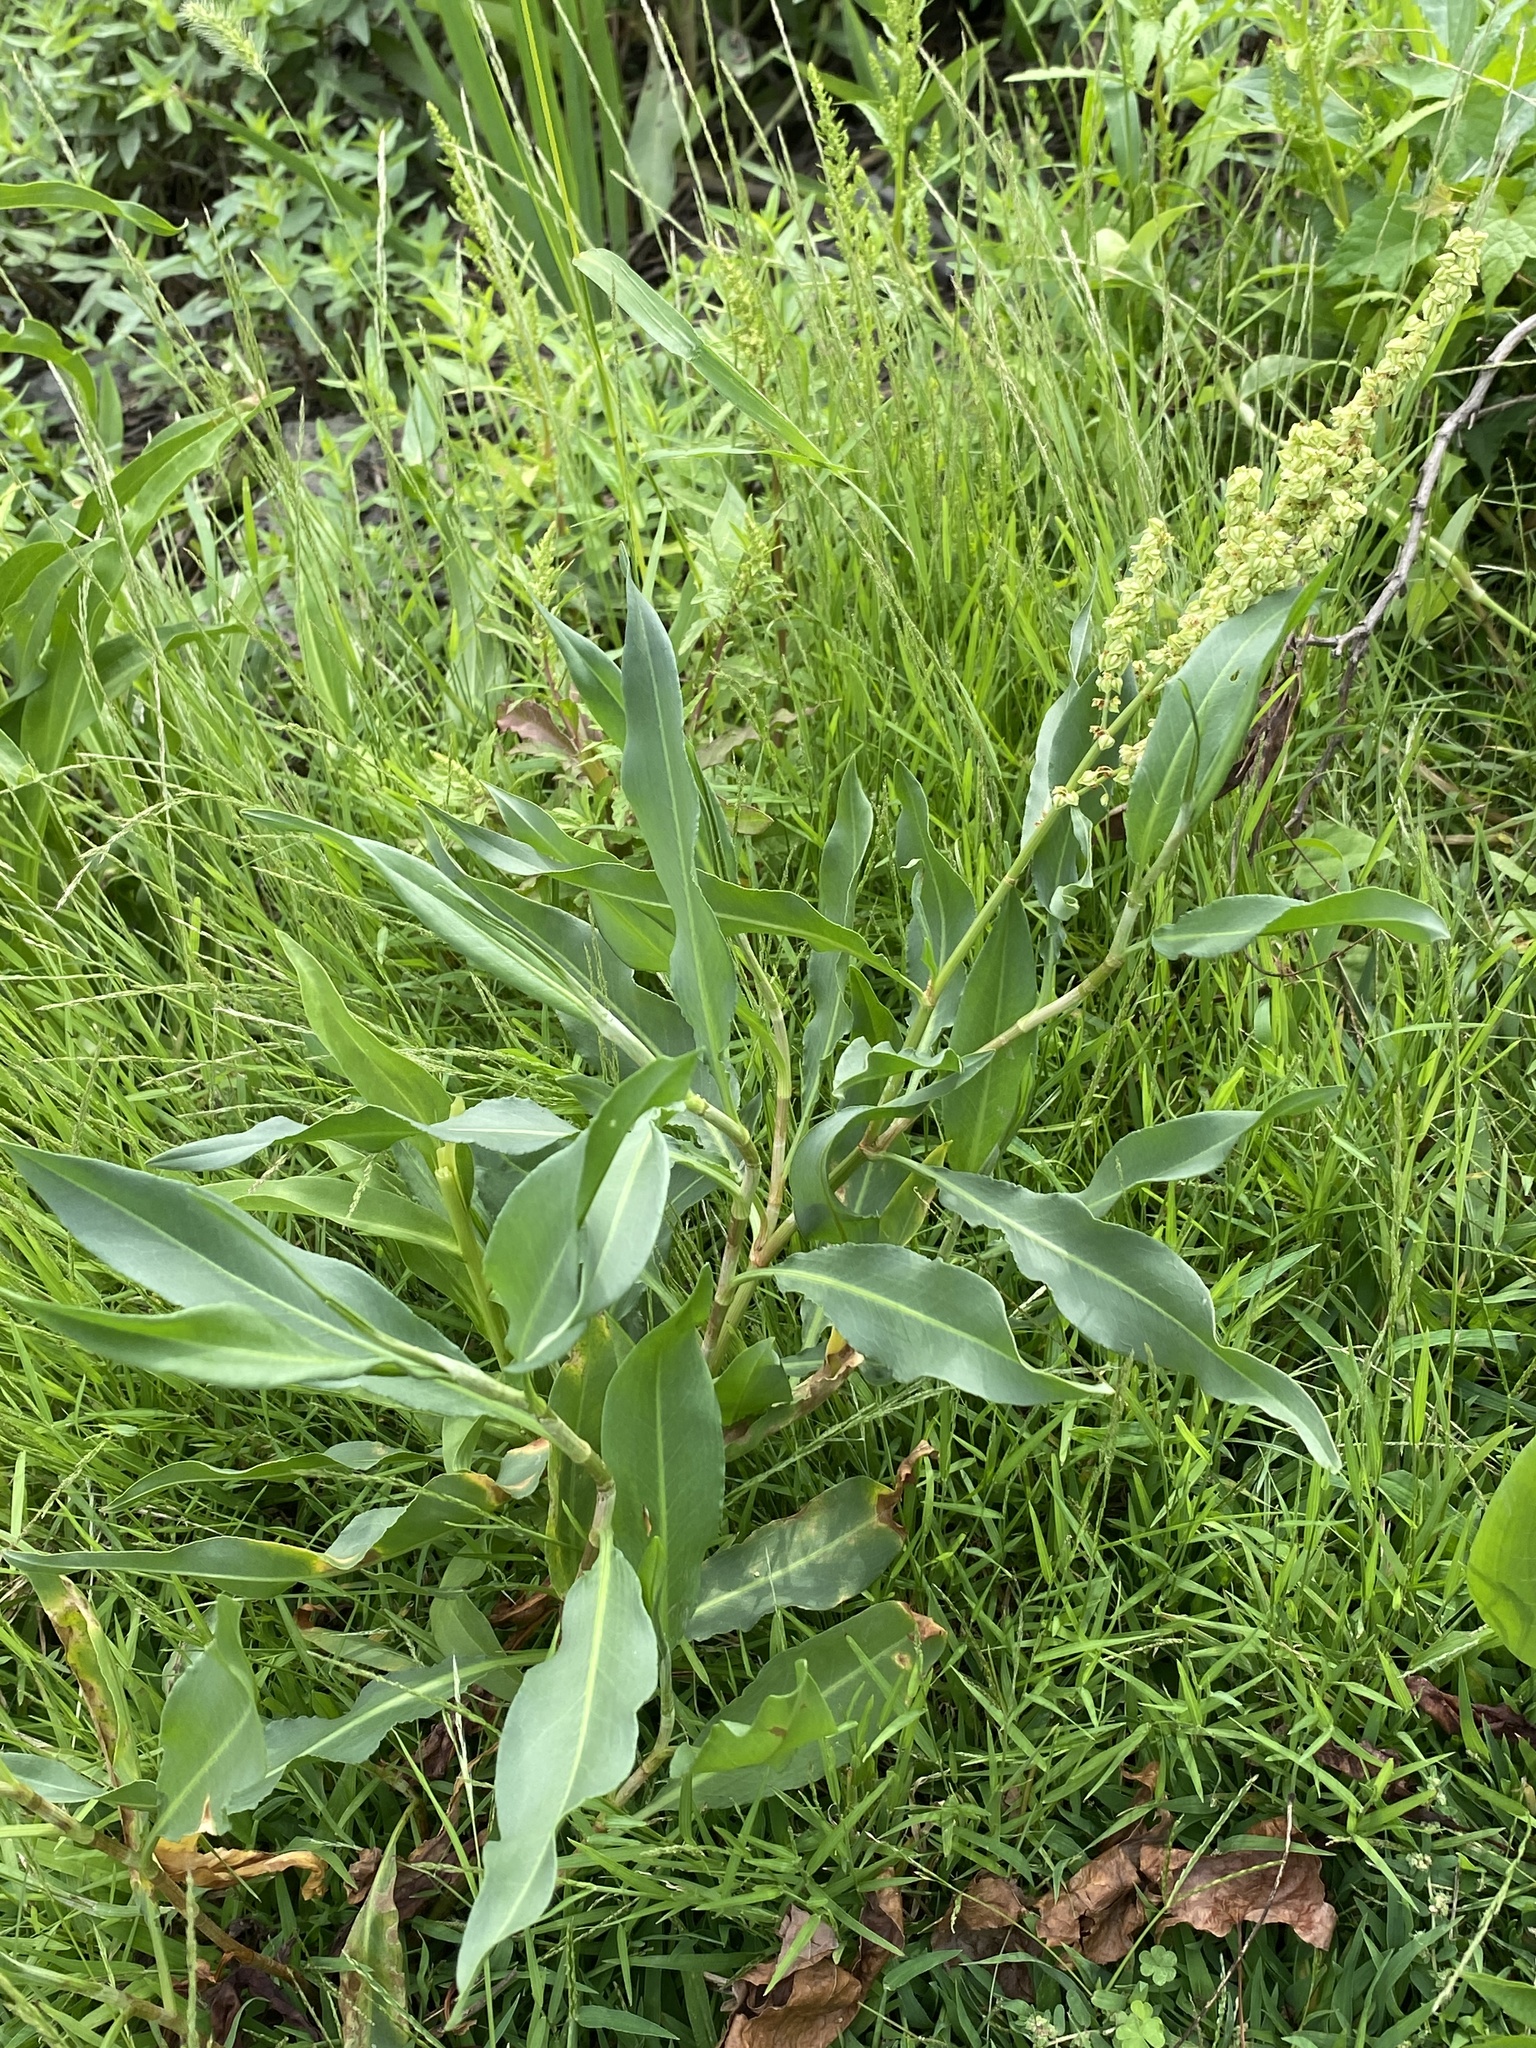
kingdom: Plantae
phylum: Tracheophyta
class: Magnoliopsida
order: Caryophyllales
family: Polygonaceae
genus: Rumex
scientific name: Rumex triangulivalvis
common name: Triangular-valve dock
